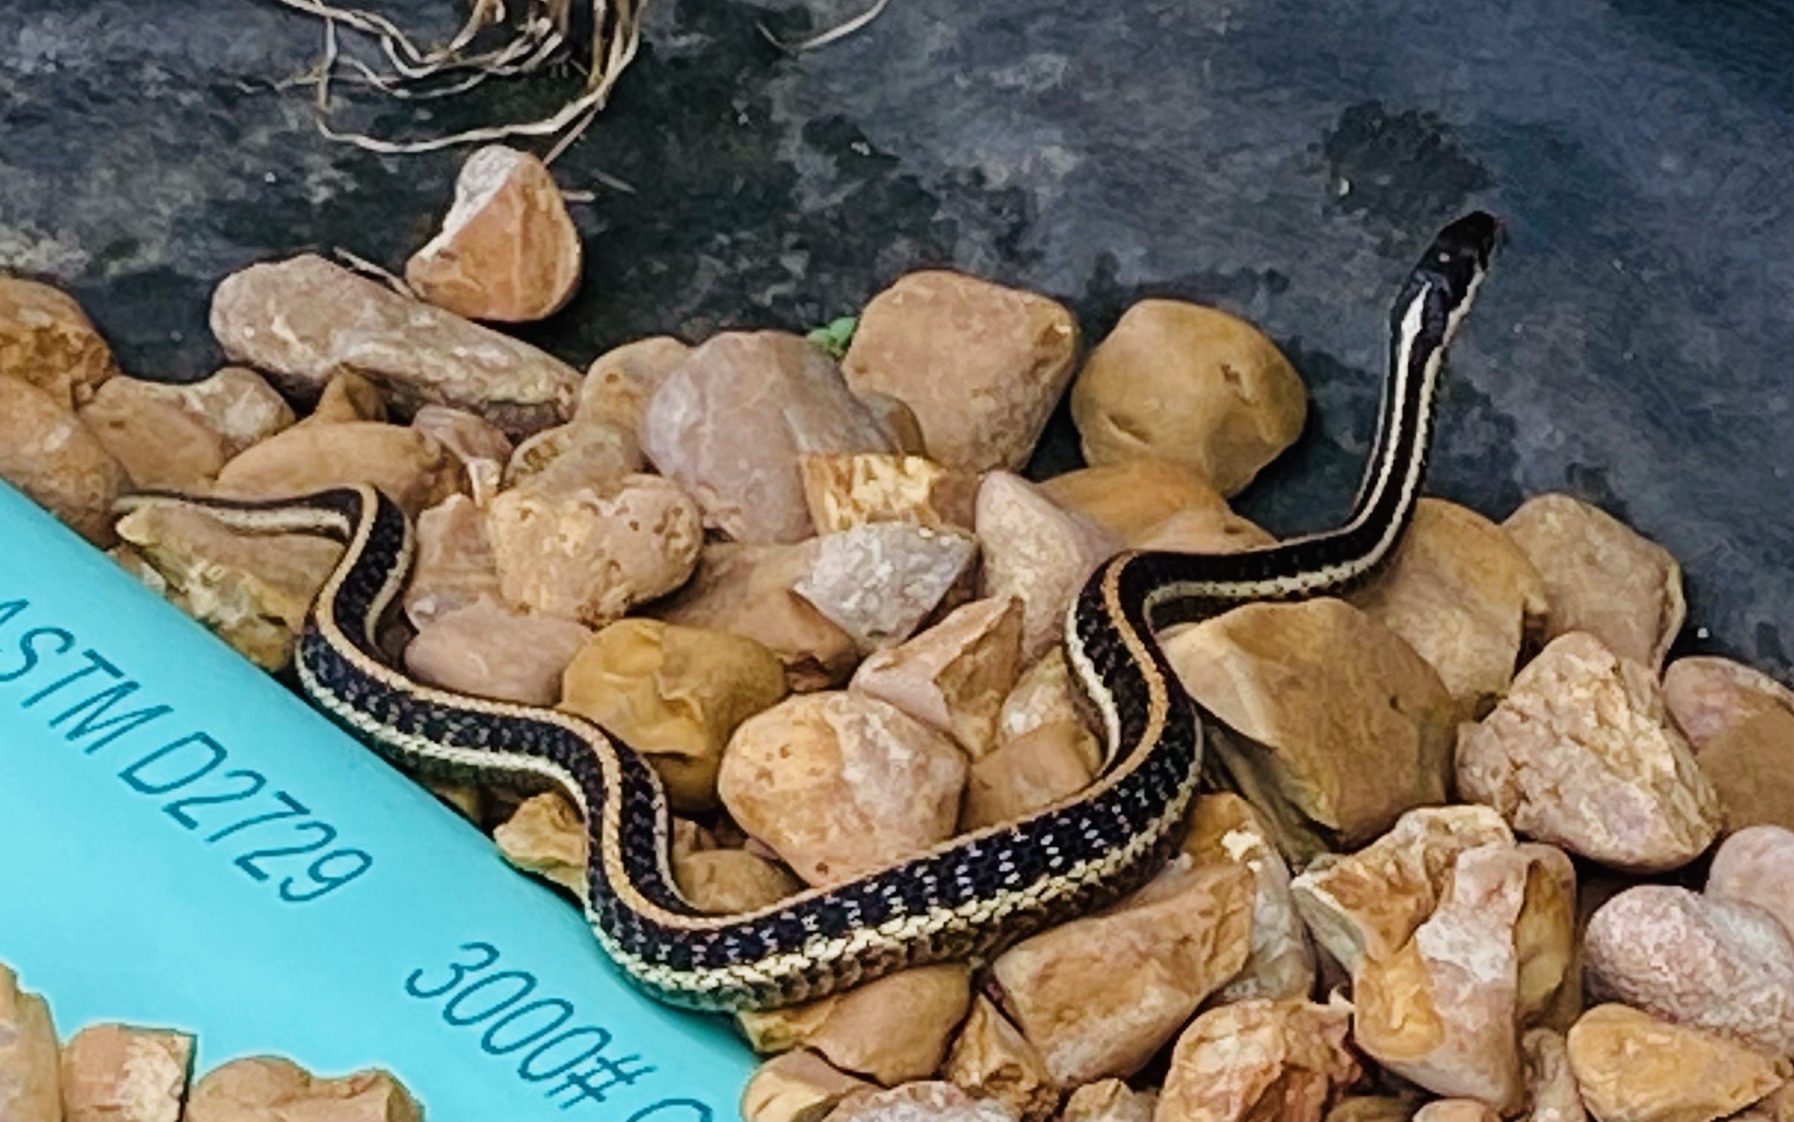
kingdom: Animalia
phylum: Chordata
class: Squamata
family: Colubridae
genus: Thamnophis
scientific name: Thamnophis sirtalis
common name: Common garter snake
